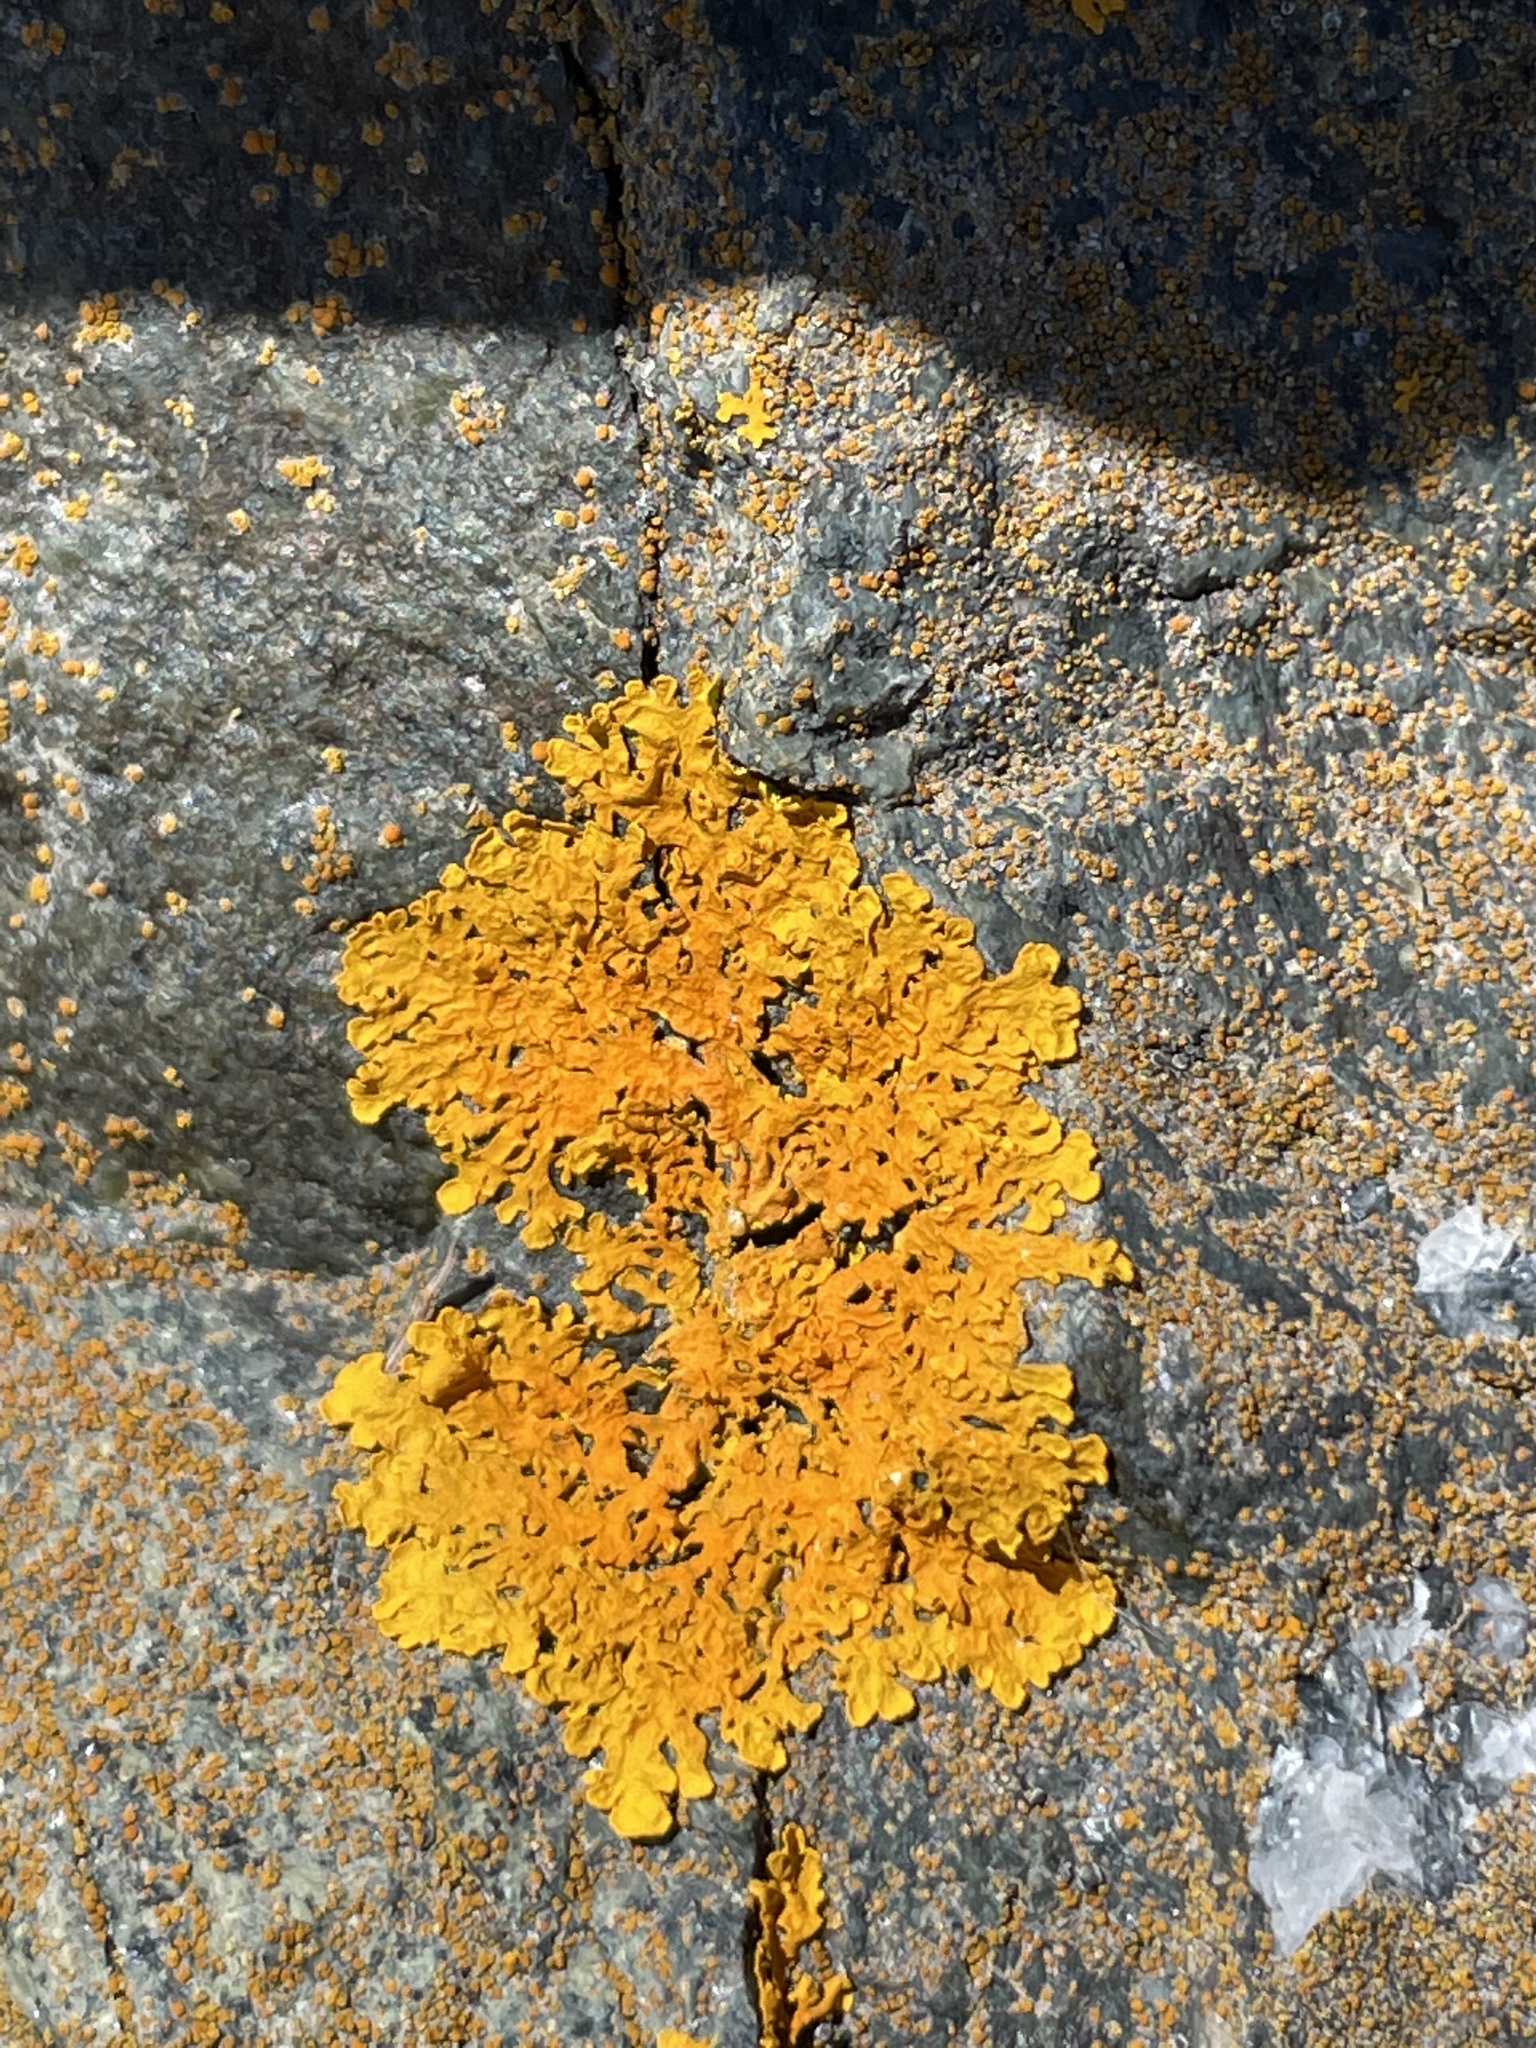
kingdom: Fungi
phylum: Ascomycota
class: Lecanoromycetes
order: Teloschistales
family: Teloschistaceae
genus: Xanthoria
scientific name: Xanthoria parietina
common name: Common orange lichen
